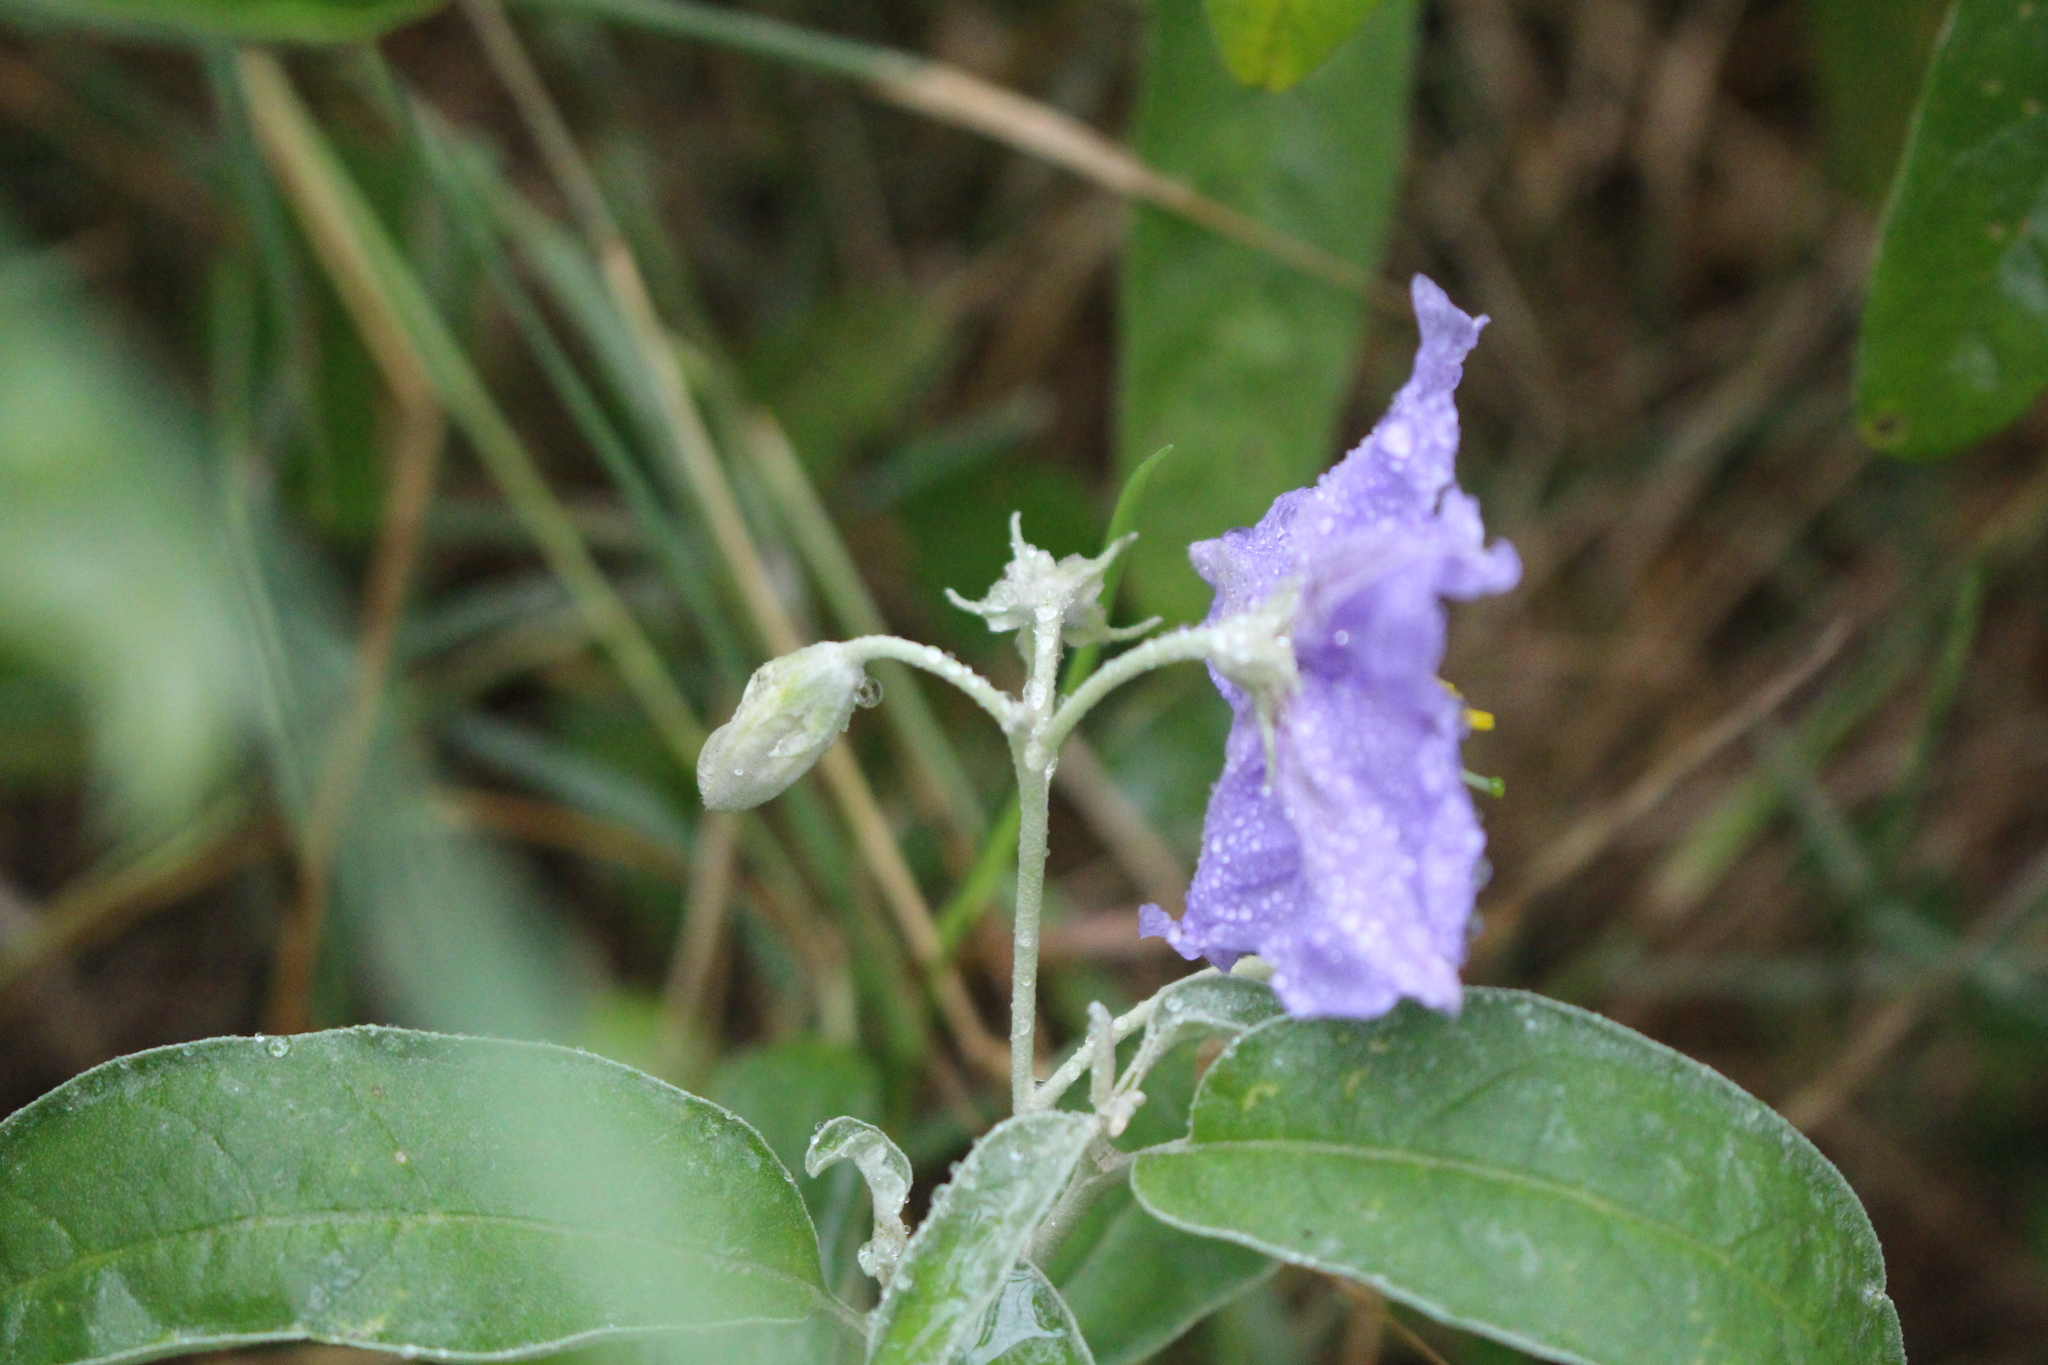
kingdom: Plantae
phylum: Tracheophyta
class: Magnoliopsida
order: Solanales
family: Solanaceae
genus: Solanum
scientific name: Solanum elaeagnifolium
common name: Silverleaf nightshade
